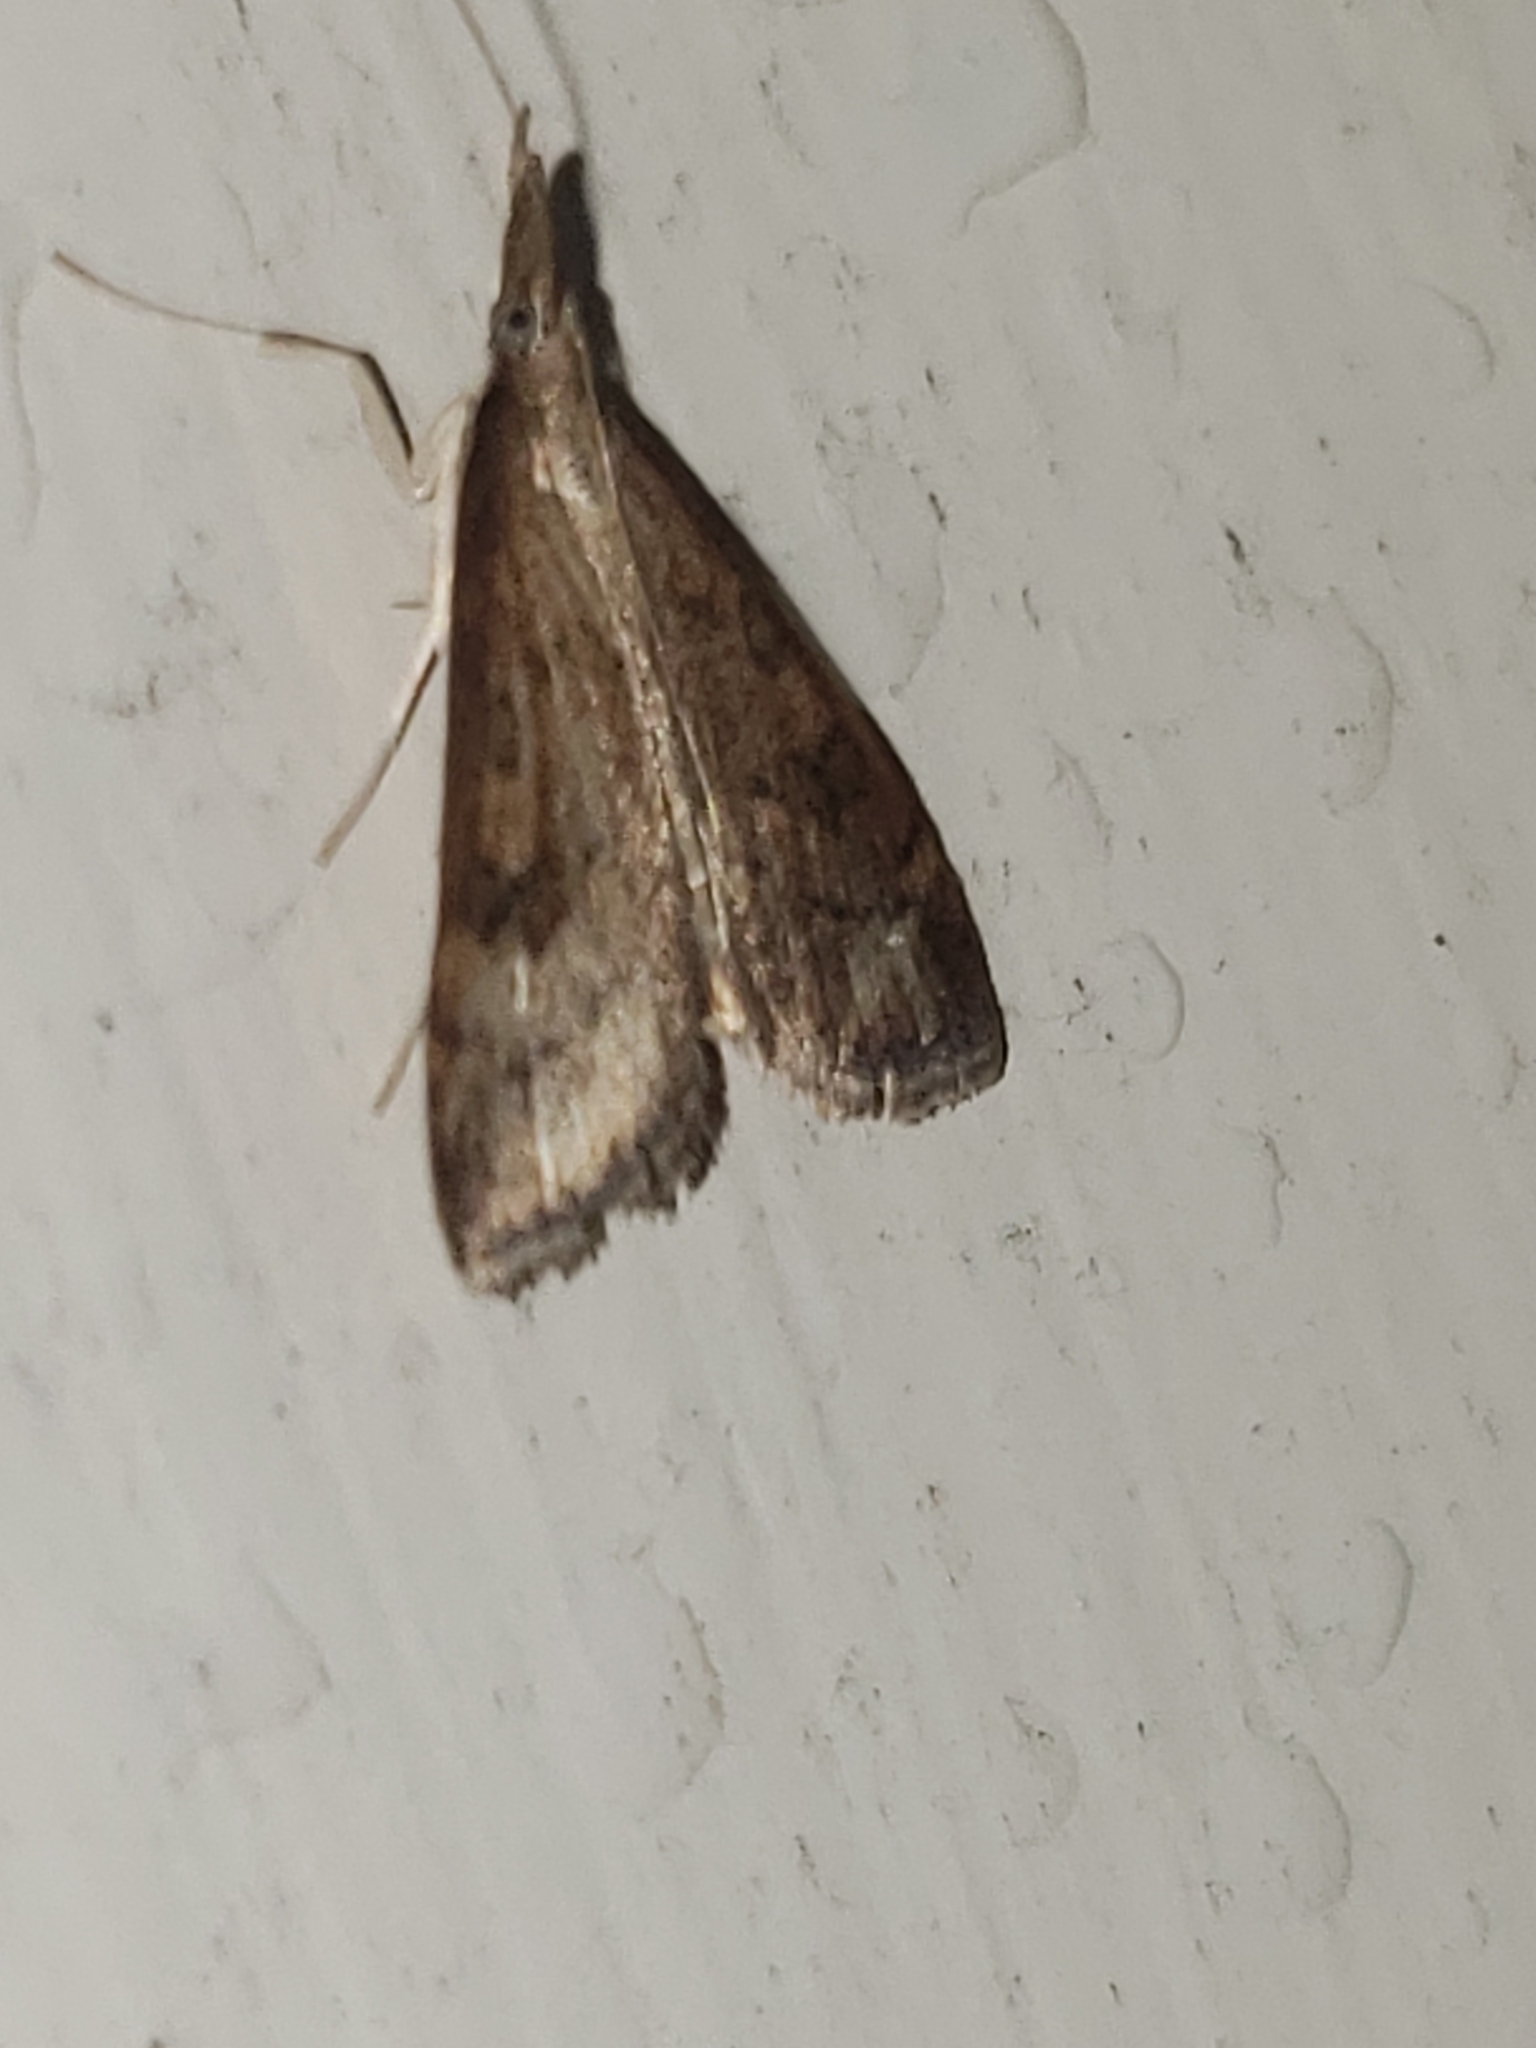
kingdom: Animalia
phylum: Arthropoda
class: Insecta
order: Lepidoptera
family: Crambidae
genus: Udea
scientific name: Udea rubigalis
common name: Celery leaftier moth
